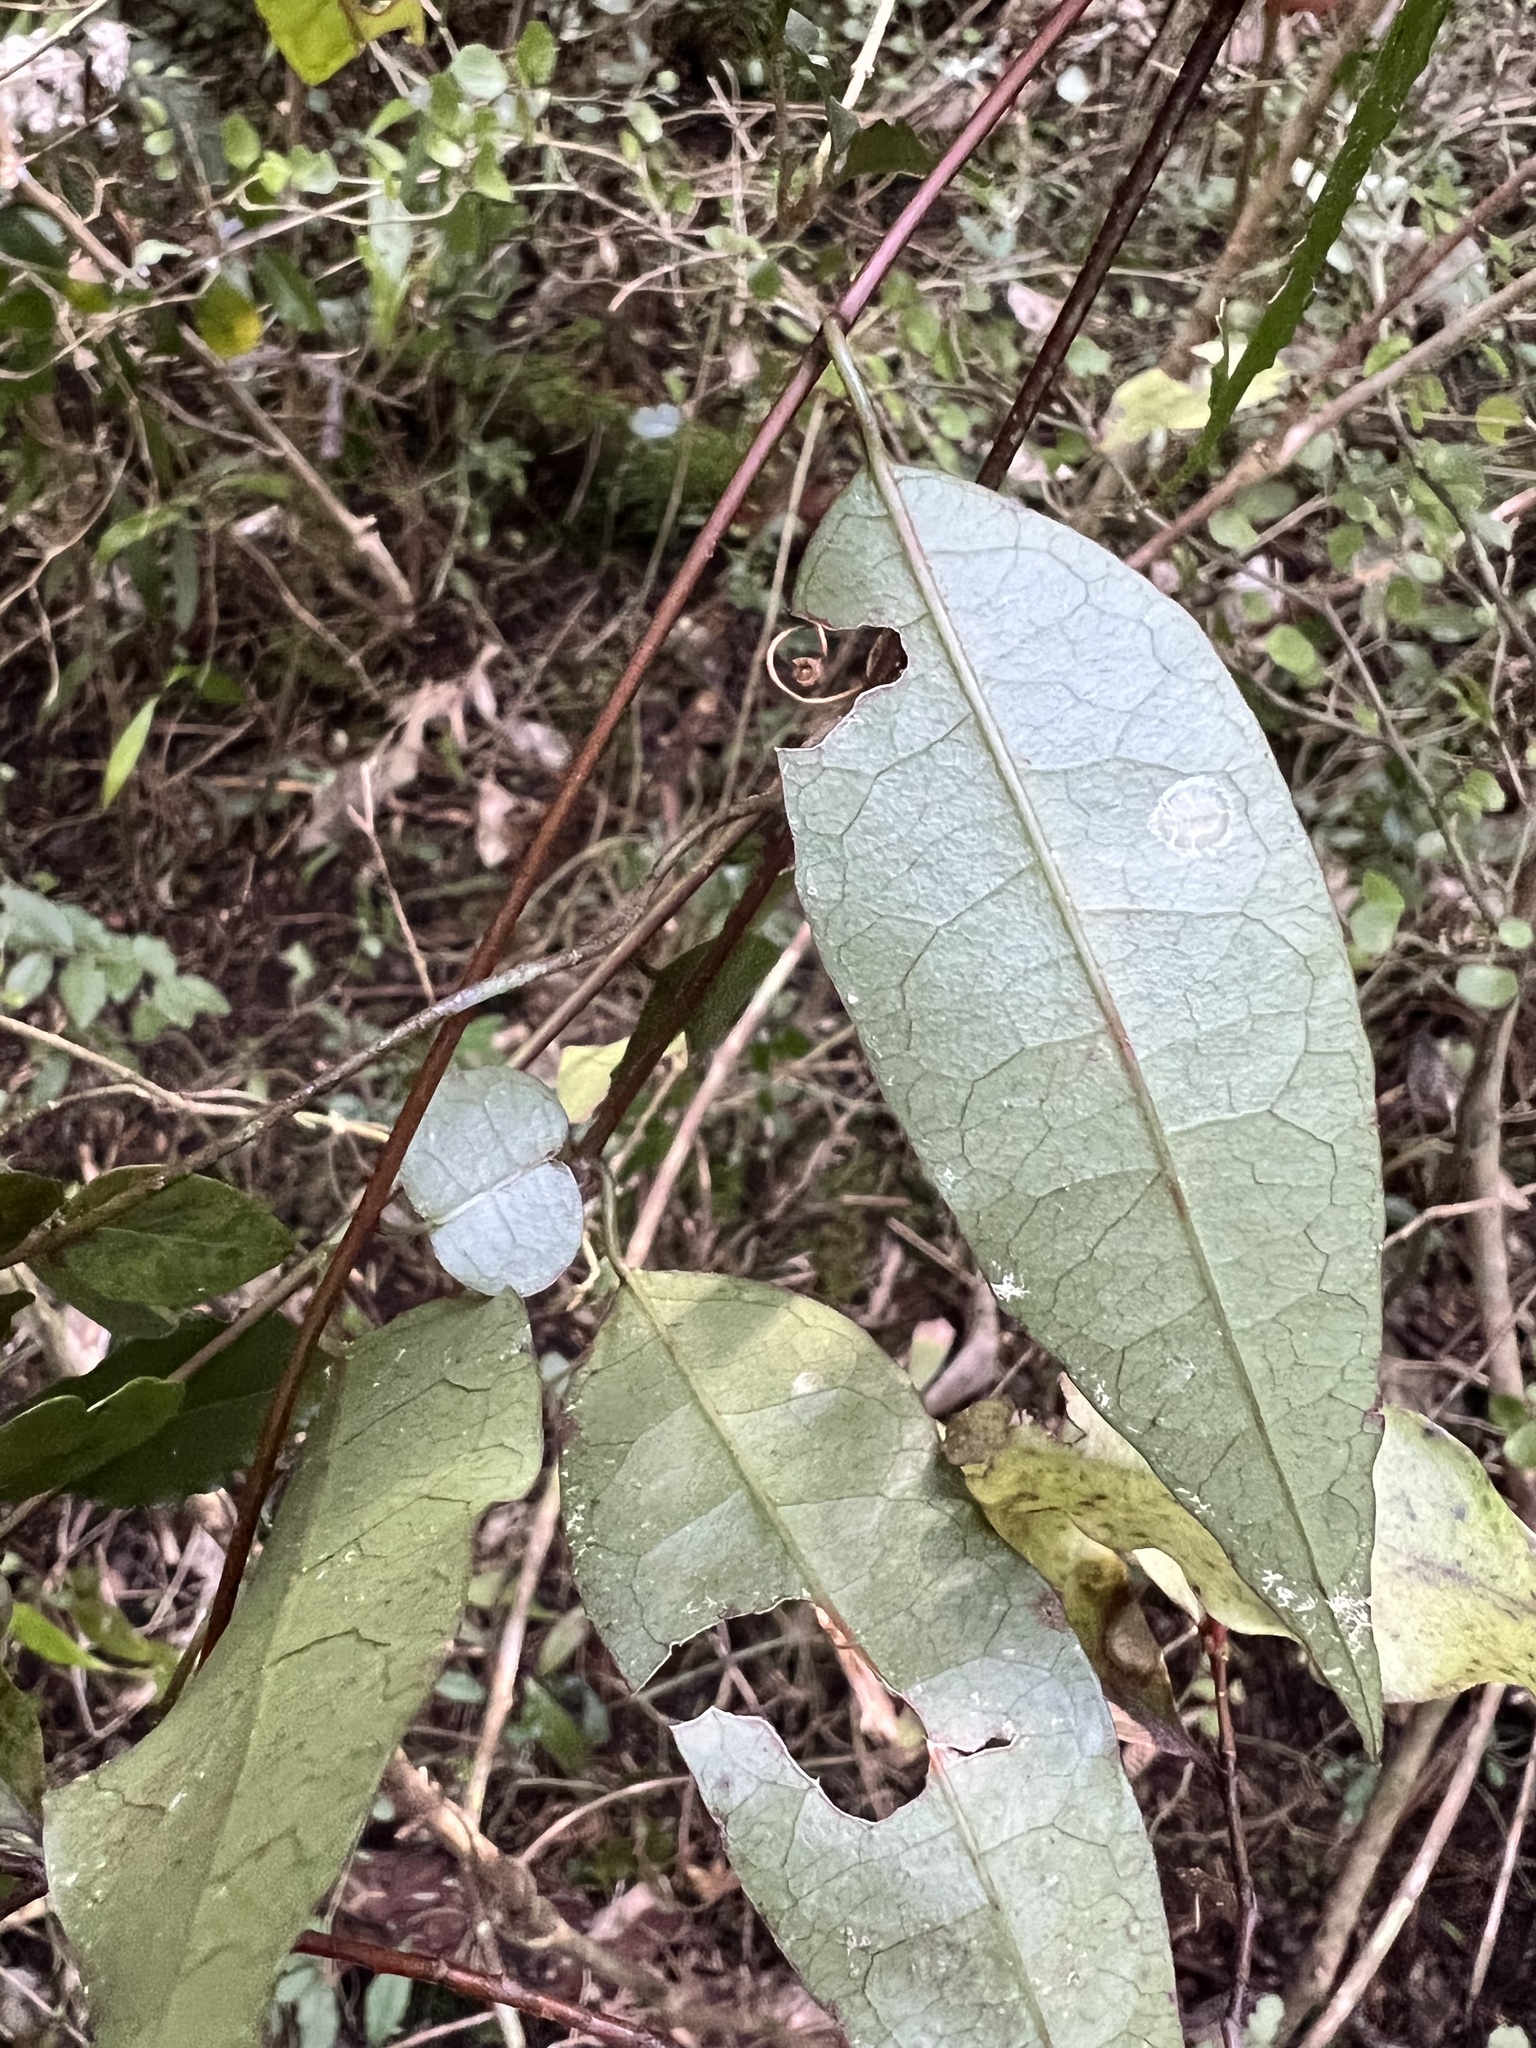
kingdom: Plantae
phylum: Tracheophyta
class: Magnoliopsida
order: Malpighiales
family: Passifloraceae
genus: Passiflora
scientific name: Passiflora tetrandra
